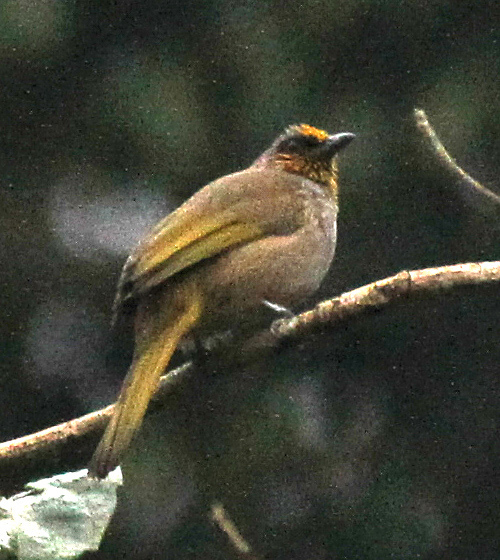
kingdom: Animalia
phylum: Chordata
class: Aves
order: Passeriformes
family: Pycnonotidae
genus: Pycnonotus
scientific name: Pycnonotus finlaysoni
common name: Stripe-throated bulbul
